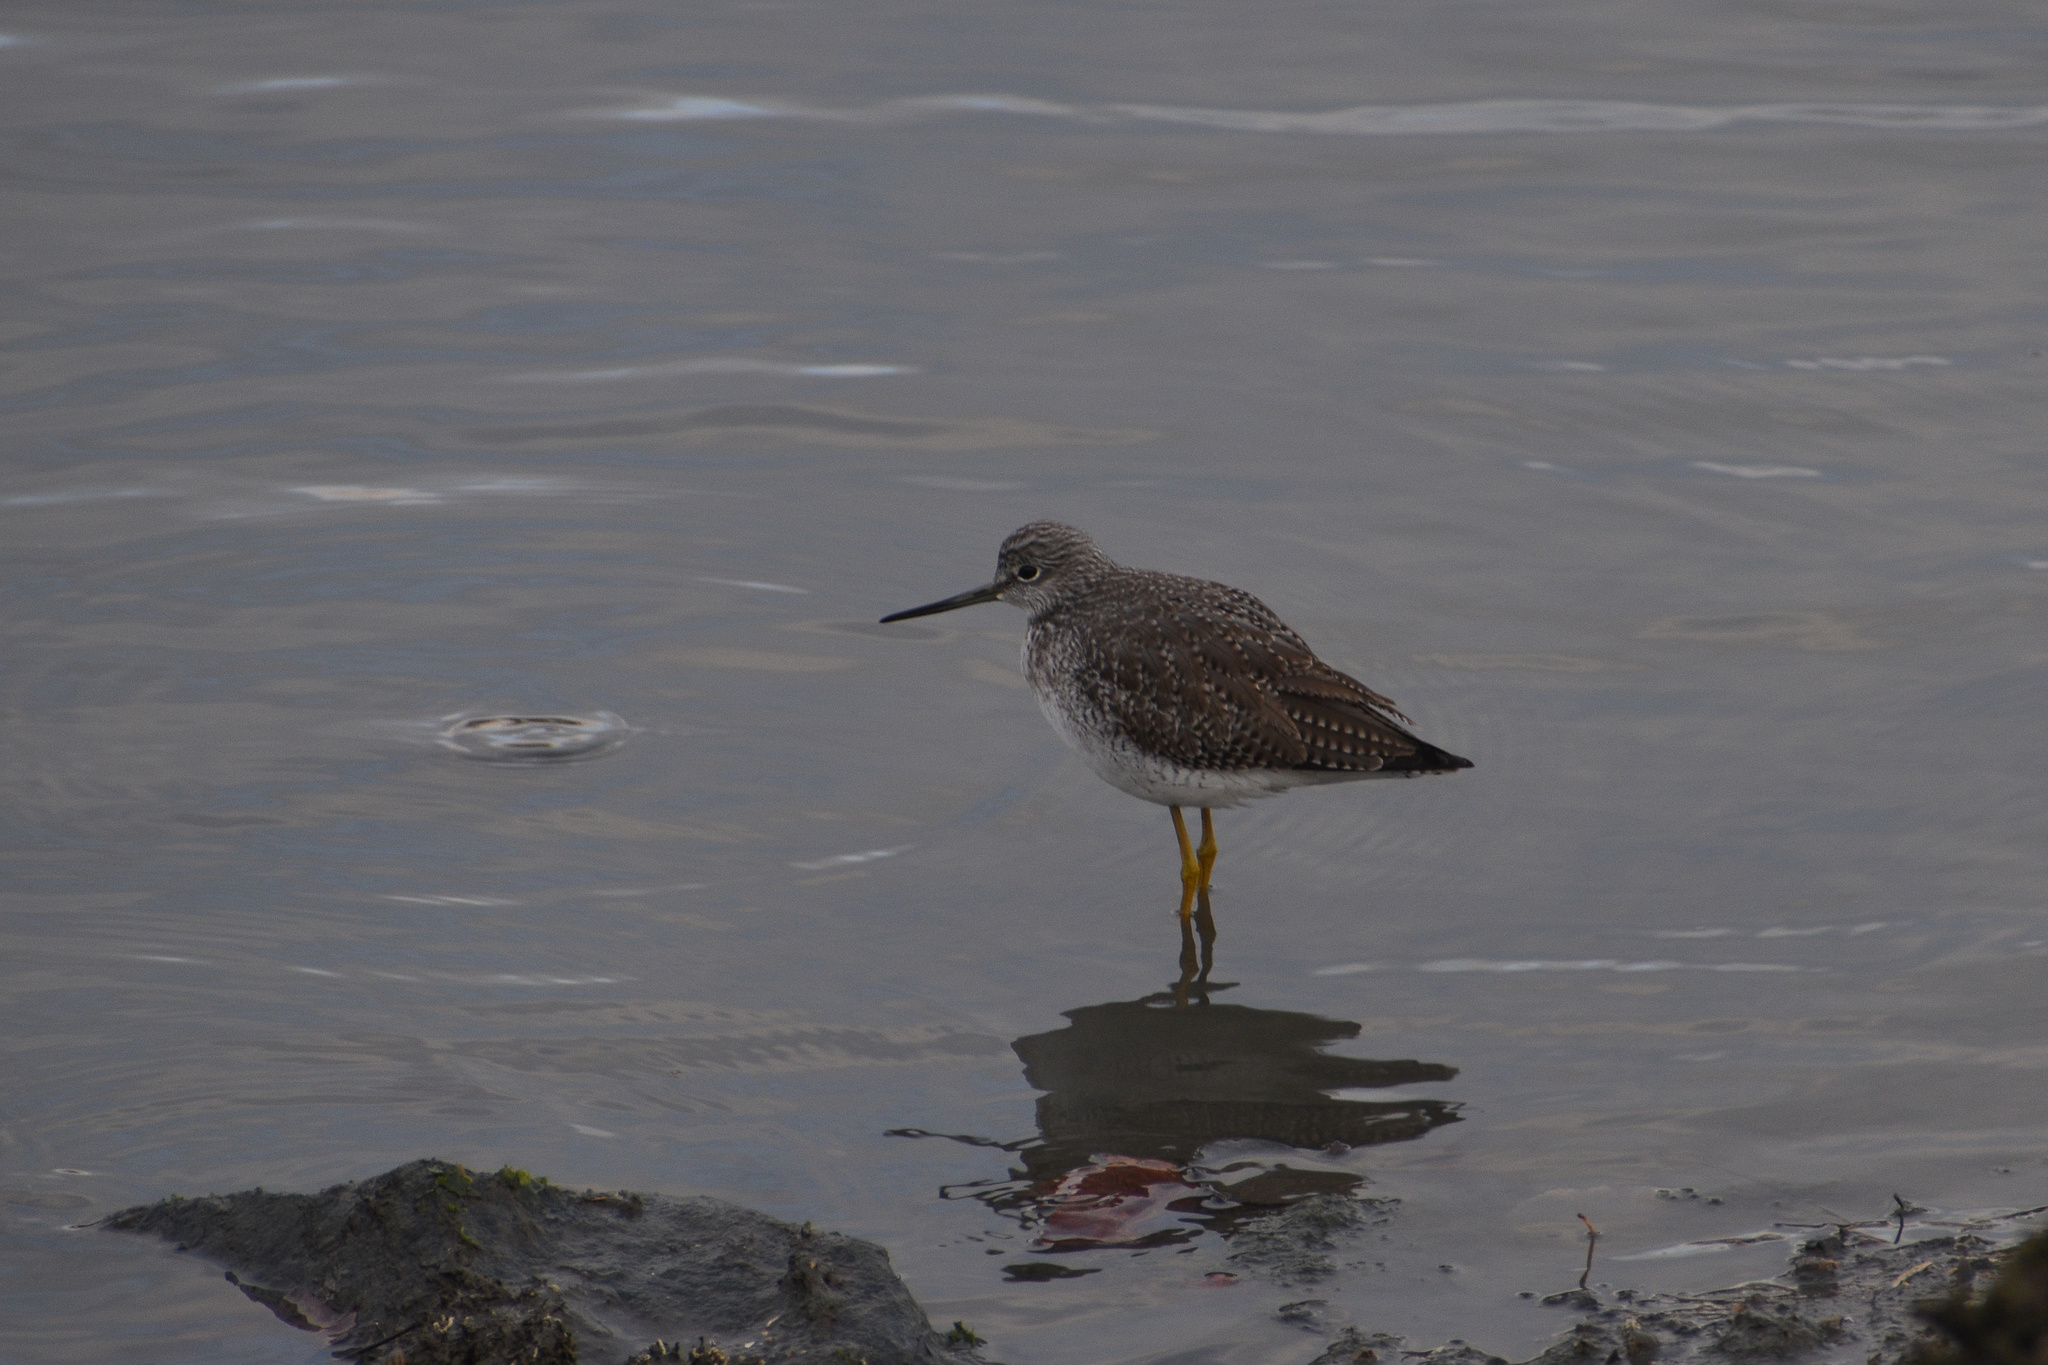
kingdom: Animalia
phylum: Chordata
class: Aves
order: Charadriiformes
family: Scolopacidae
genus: Tringa
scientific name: Tringa melanoleuca
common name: Greater yellowlegs
